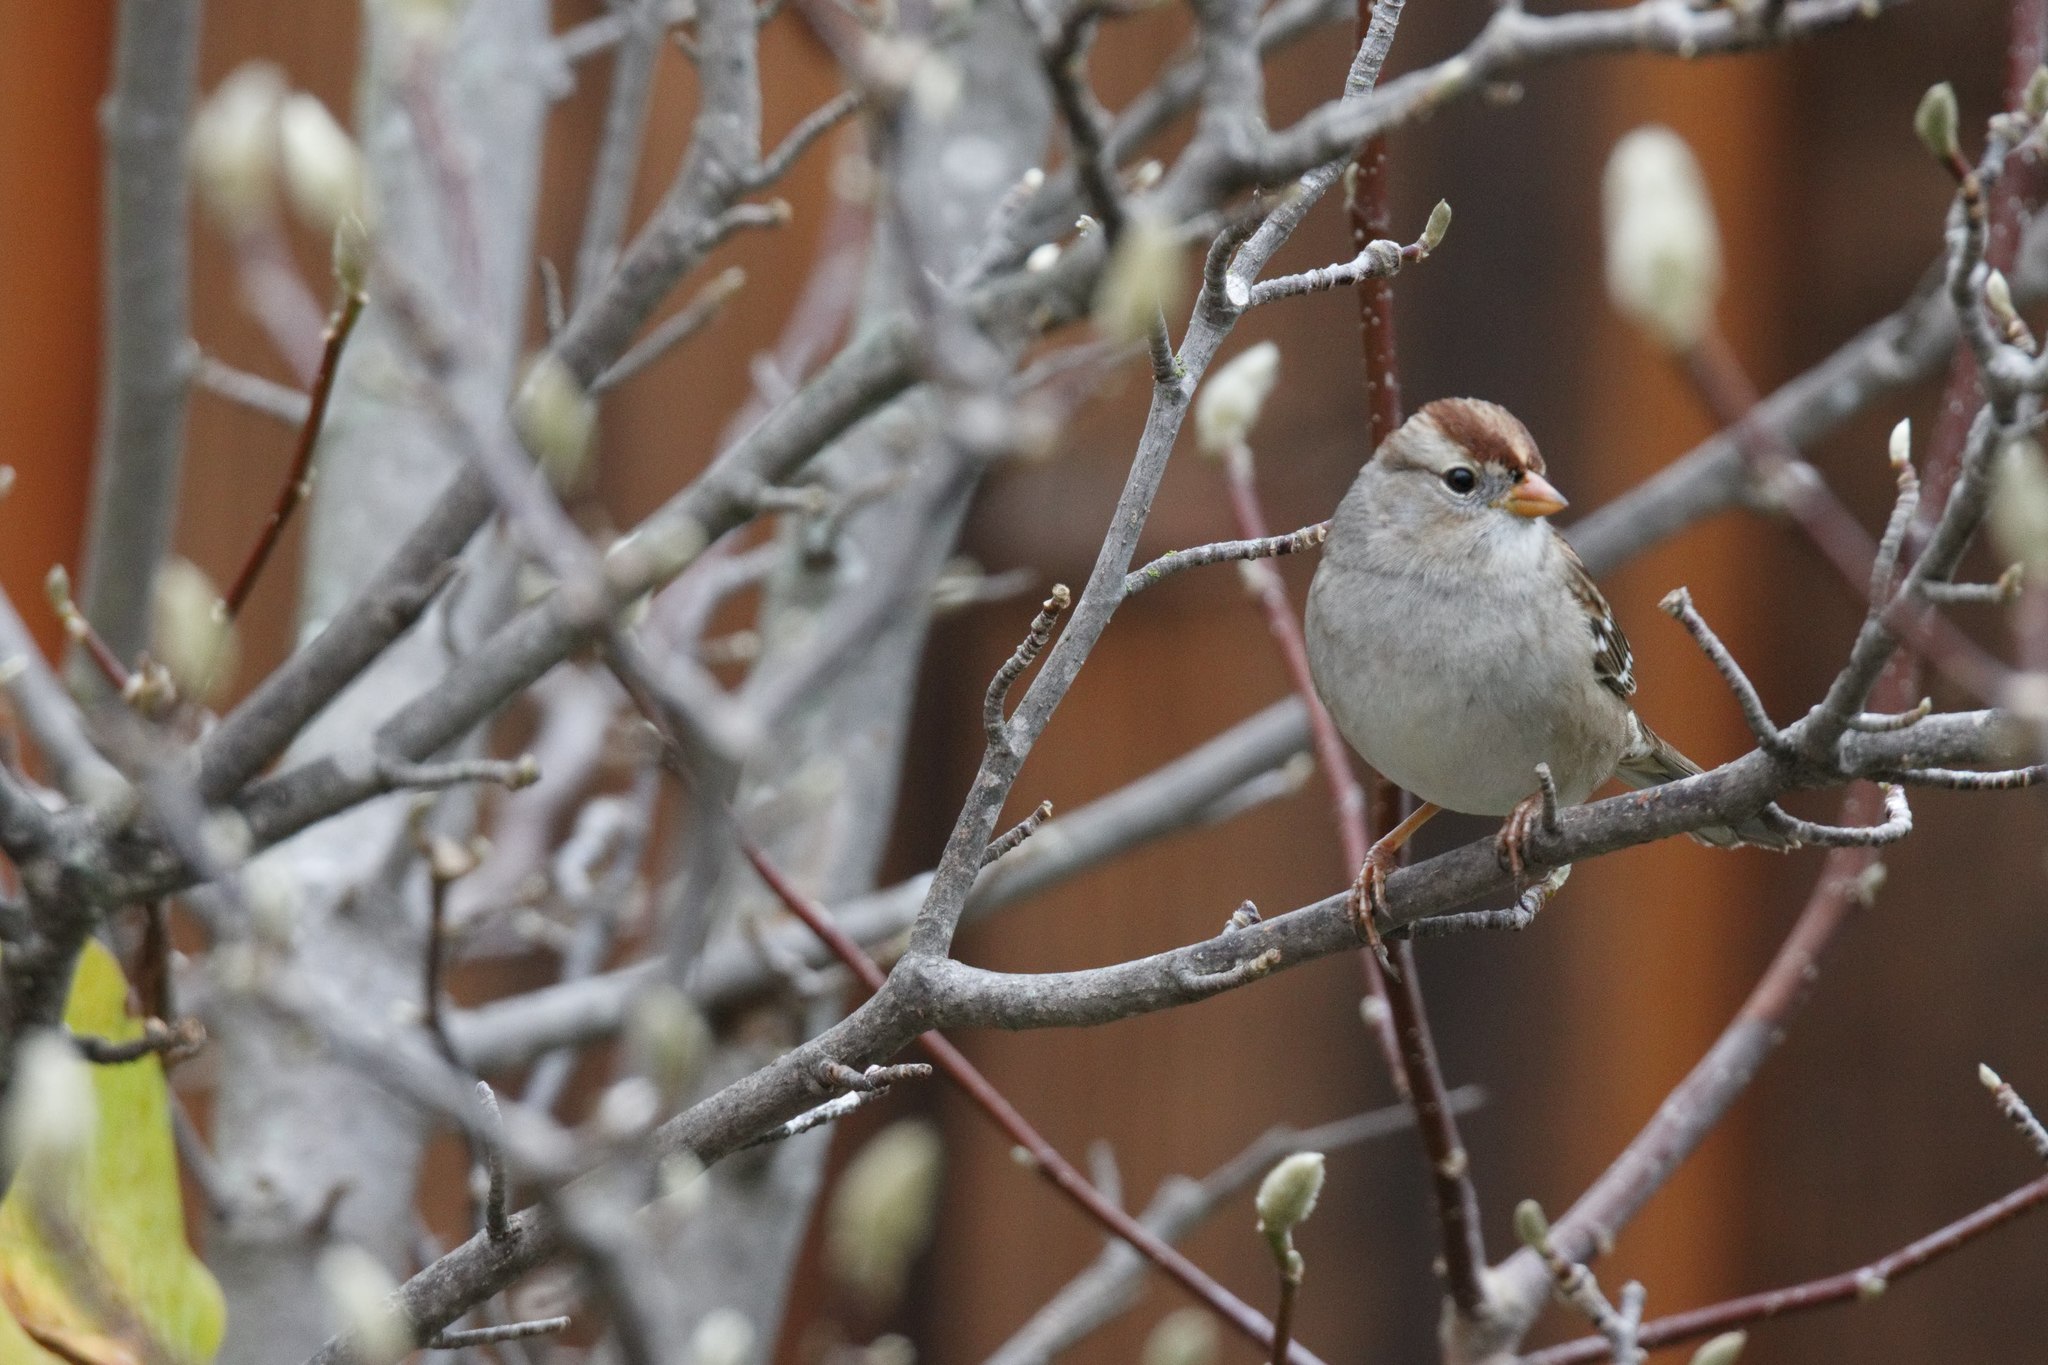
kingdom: Animalia
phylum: Chordata
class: Aves
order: Passeriformes
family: Passerellidae
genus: Zonotrichia
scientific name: Zonotrichia leucophrys
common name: White-crowned sparrow
